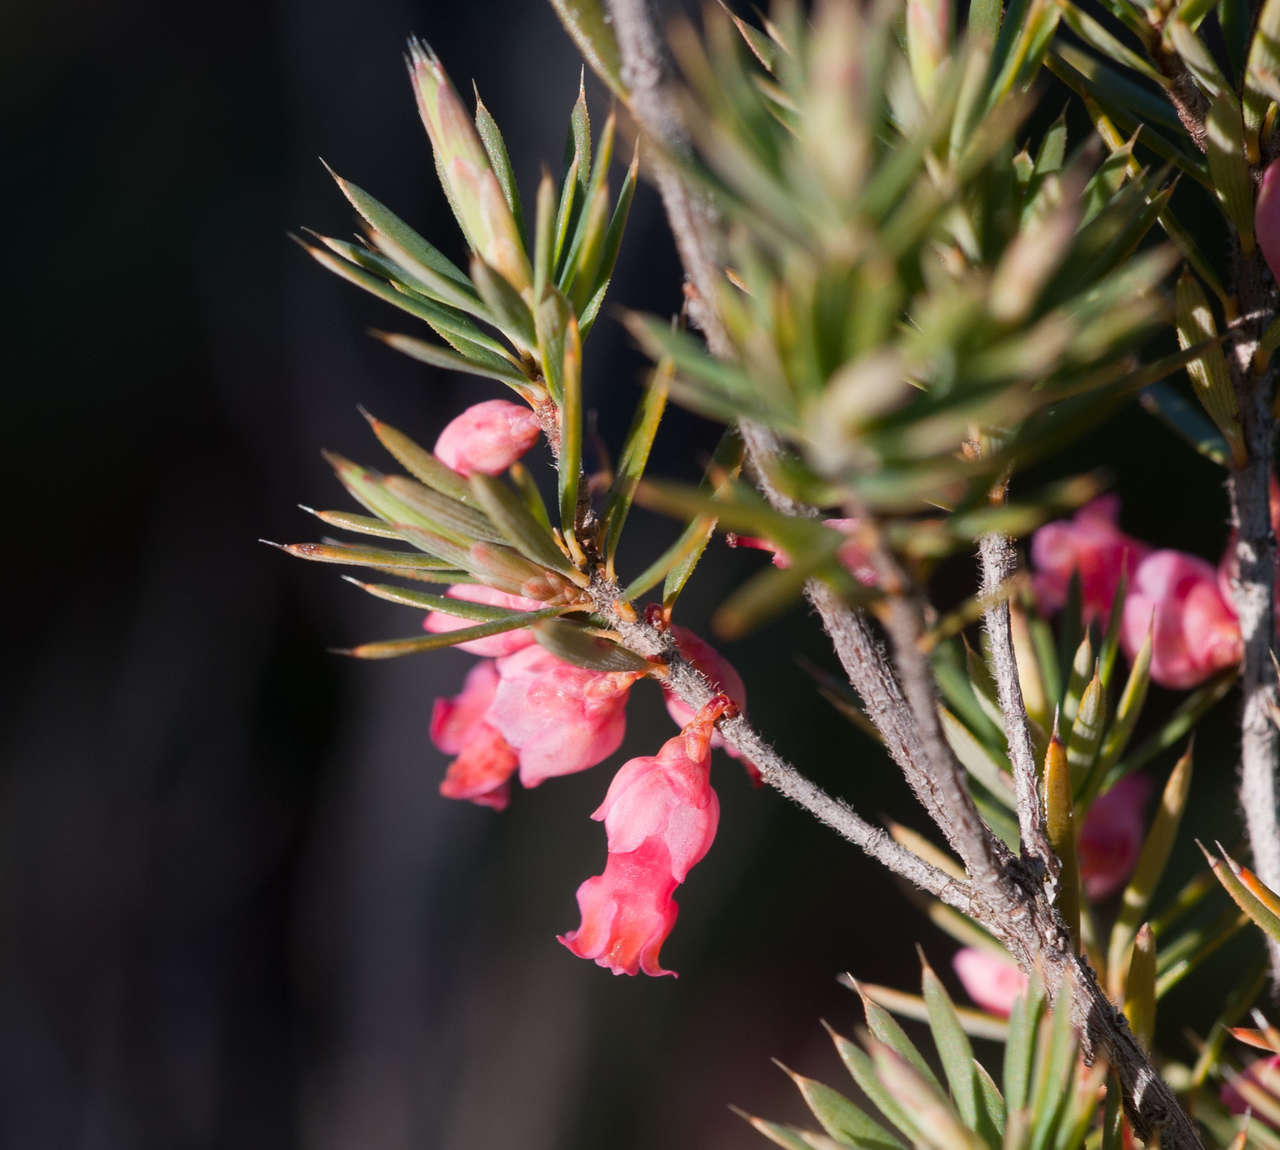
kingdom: Plantae
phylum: Tracheophyta
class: Magnoliopsida
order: Ericales
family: Ericaceae
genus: Brachyloma
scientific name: Brachyloma ericoides
